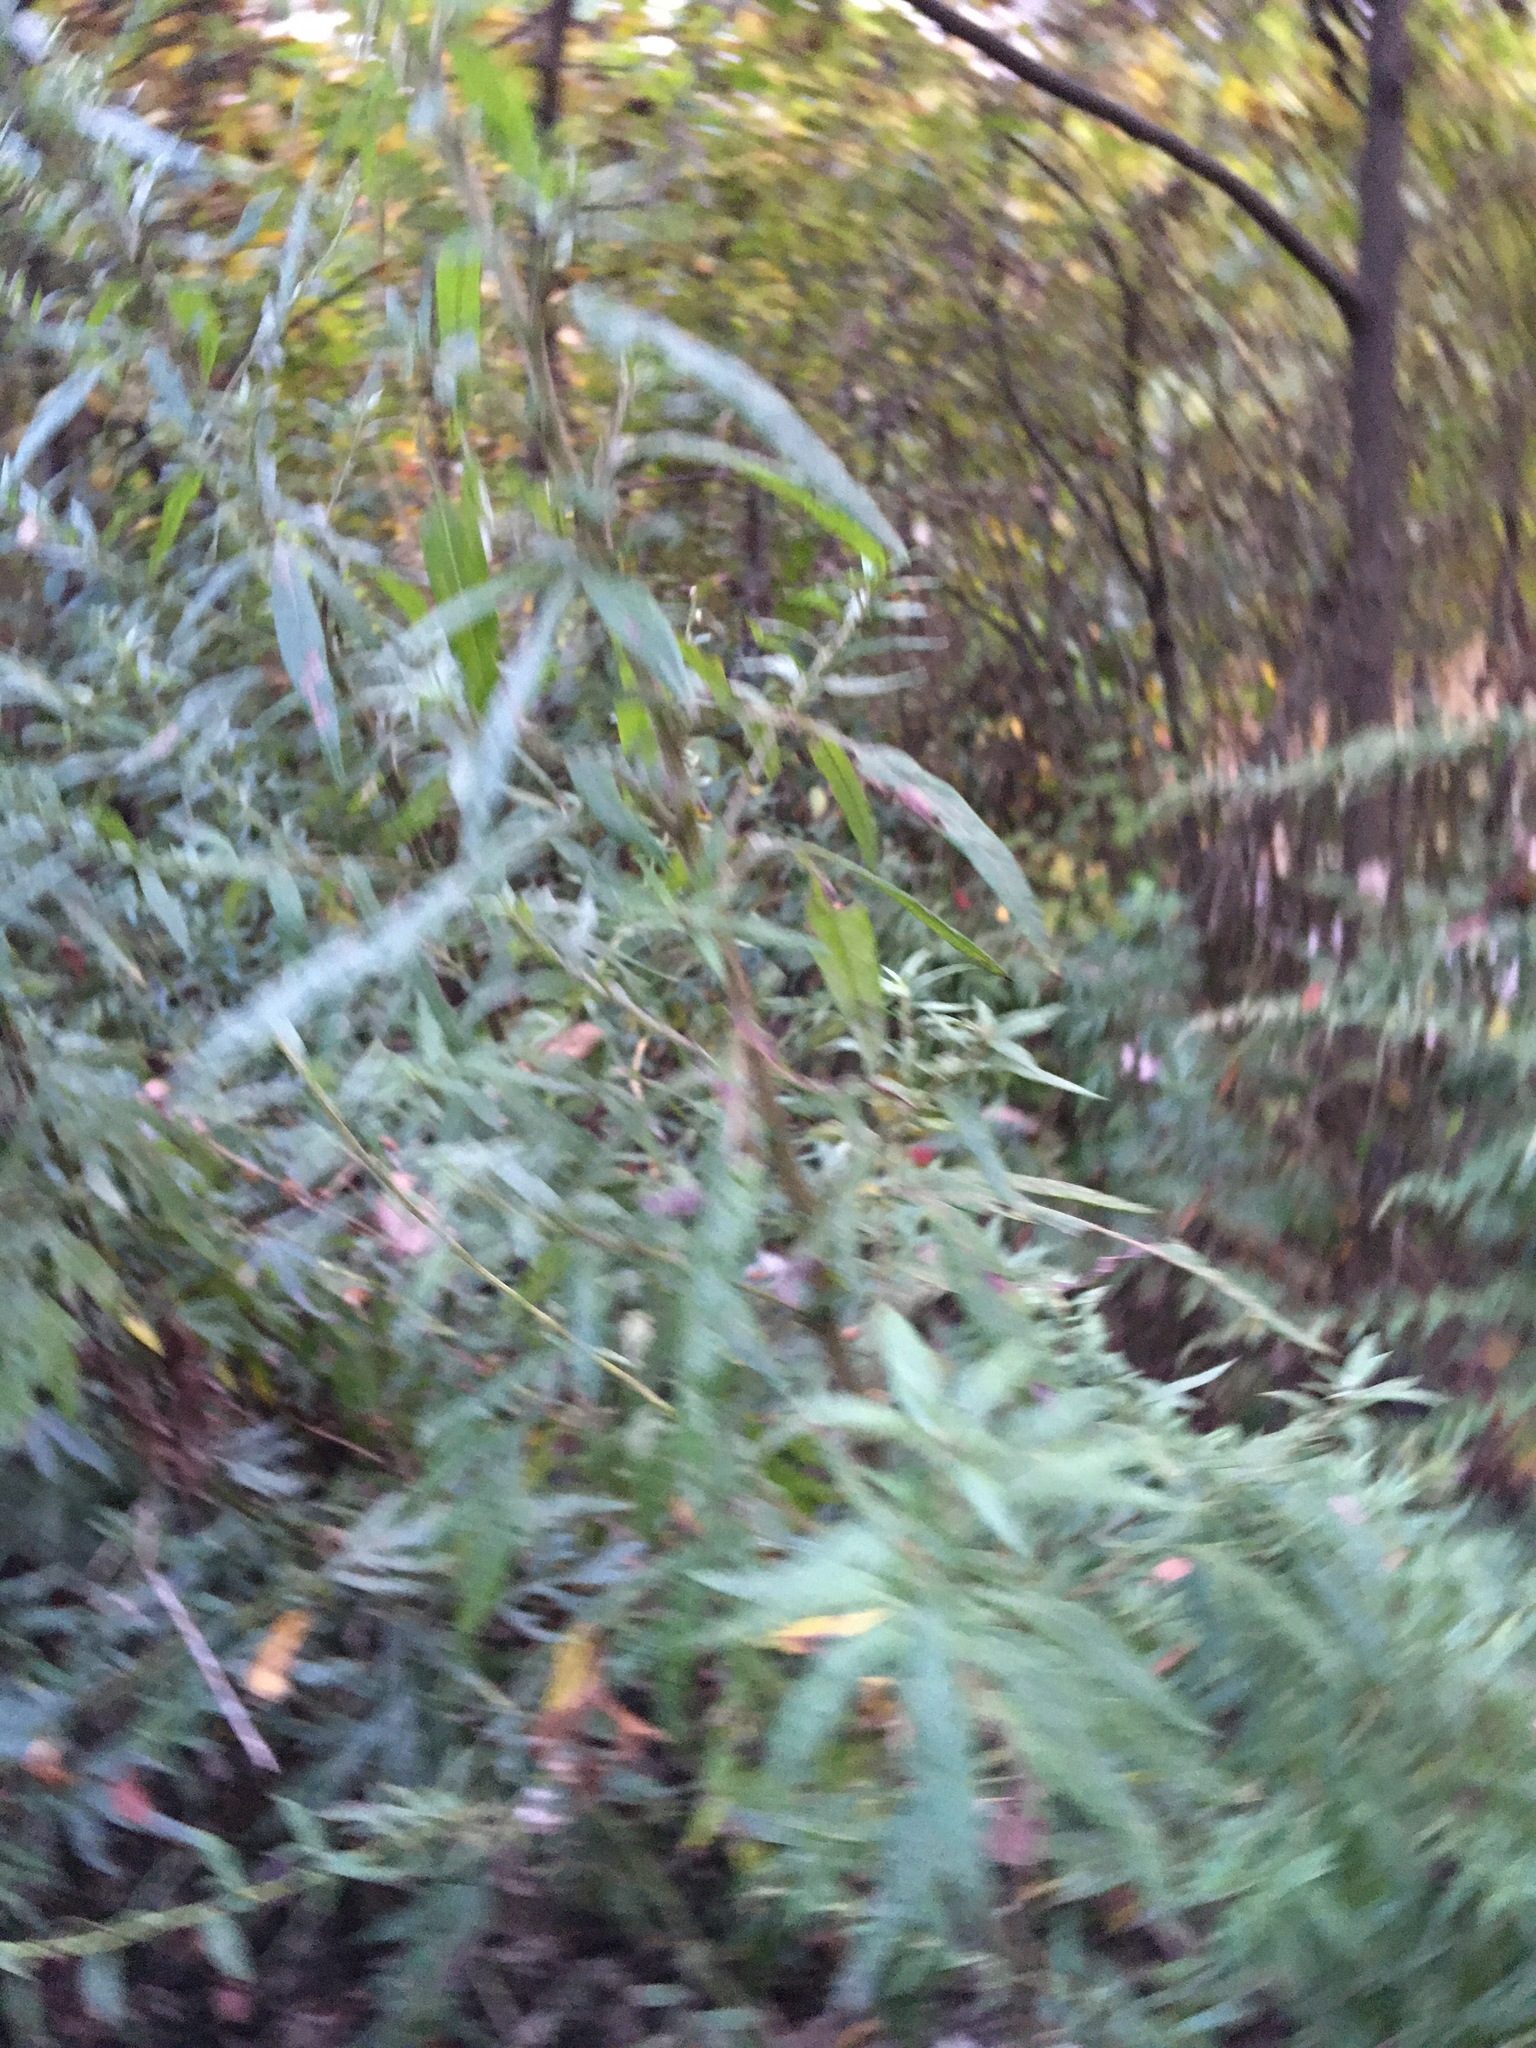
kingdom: Plantae
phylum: Tracheophyta
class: Magnoliopsida
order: Asterales
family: Asteraceae
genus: Artemisia
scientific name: Artemisia vulgaris
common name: Mugwort
